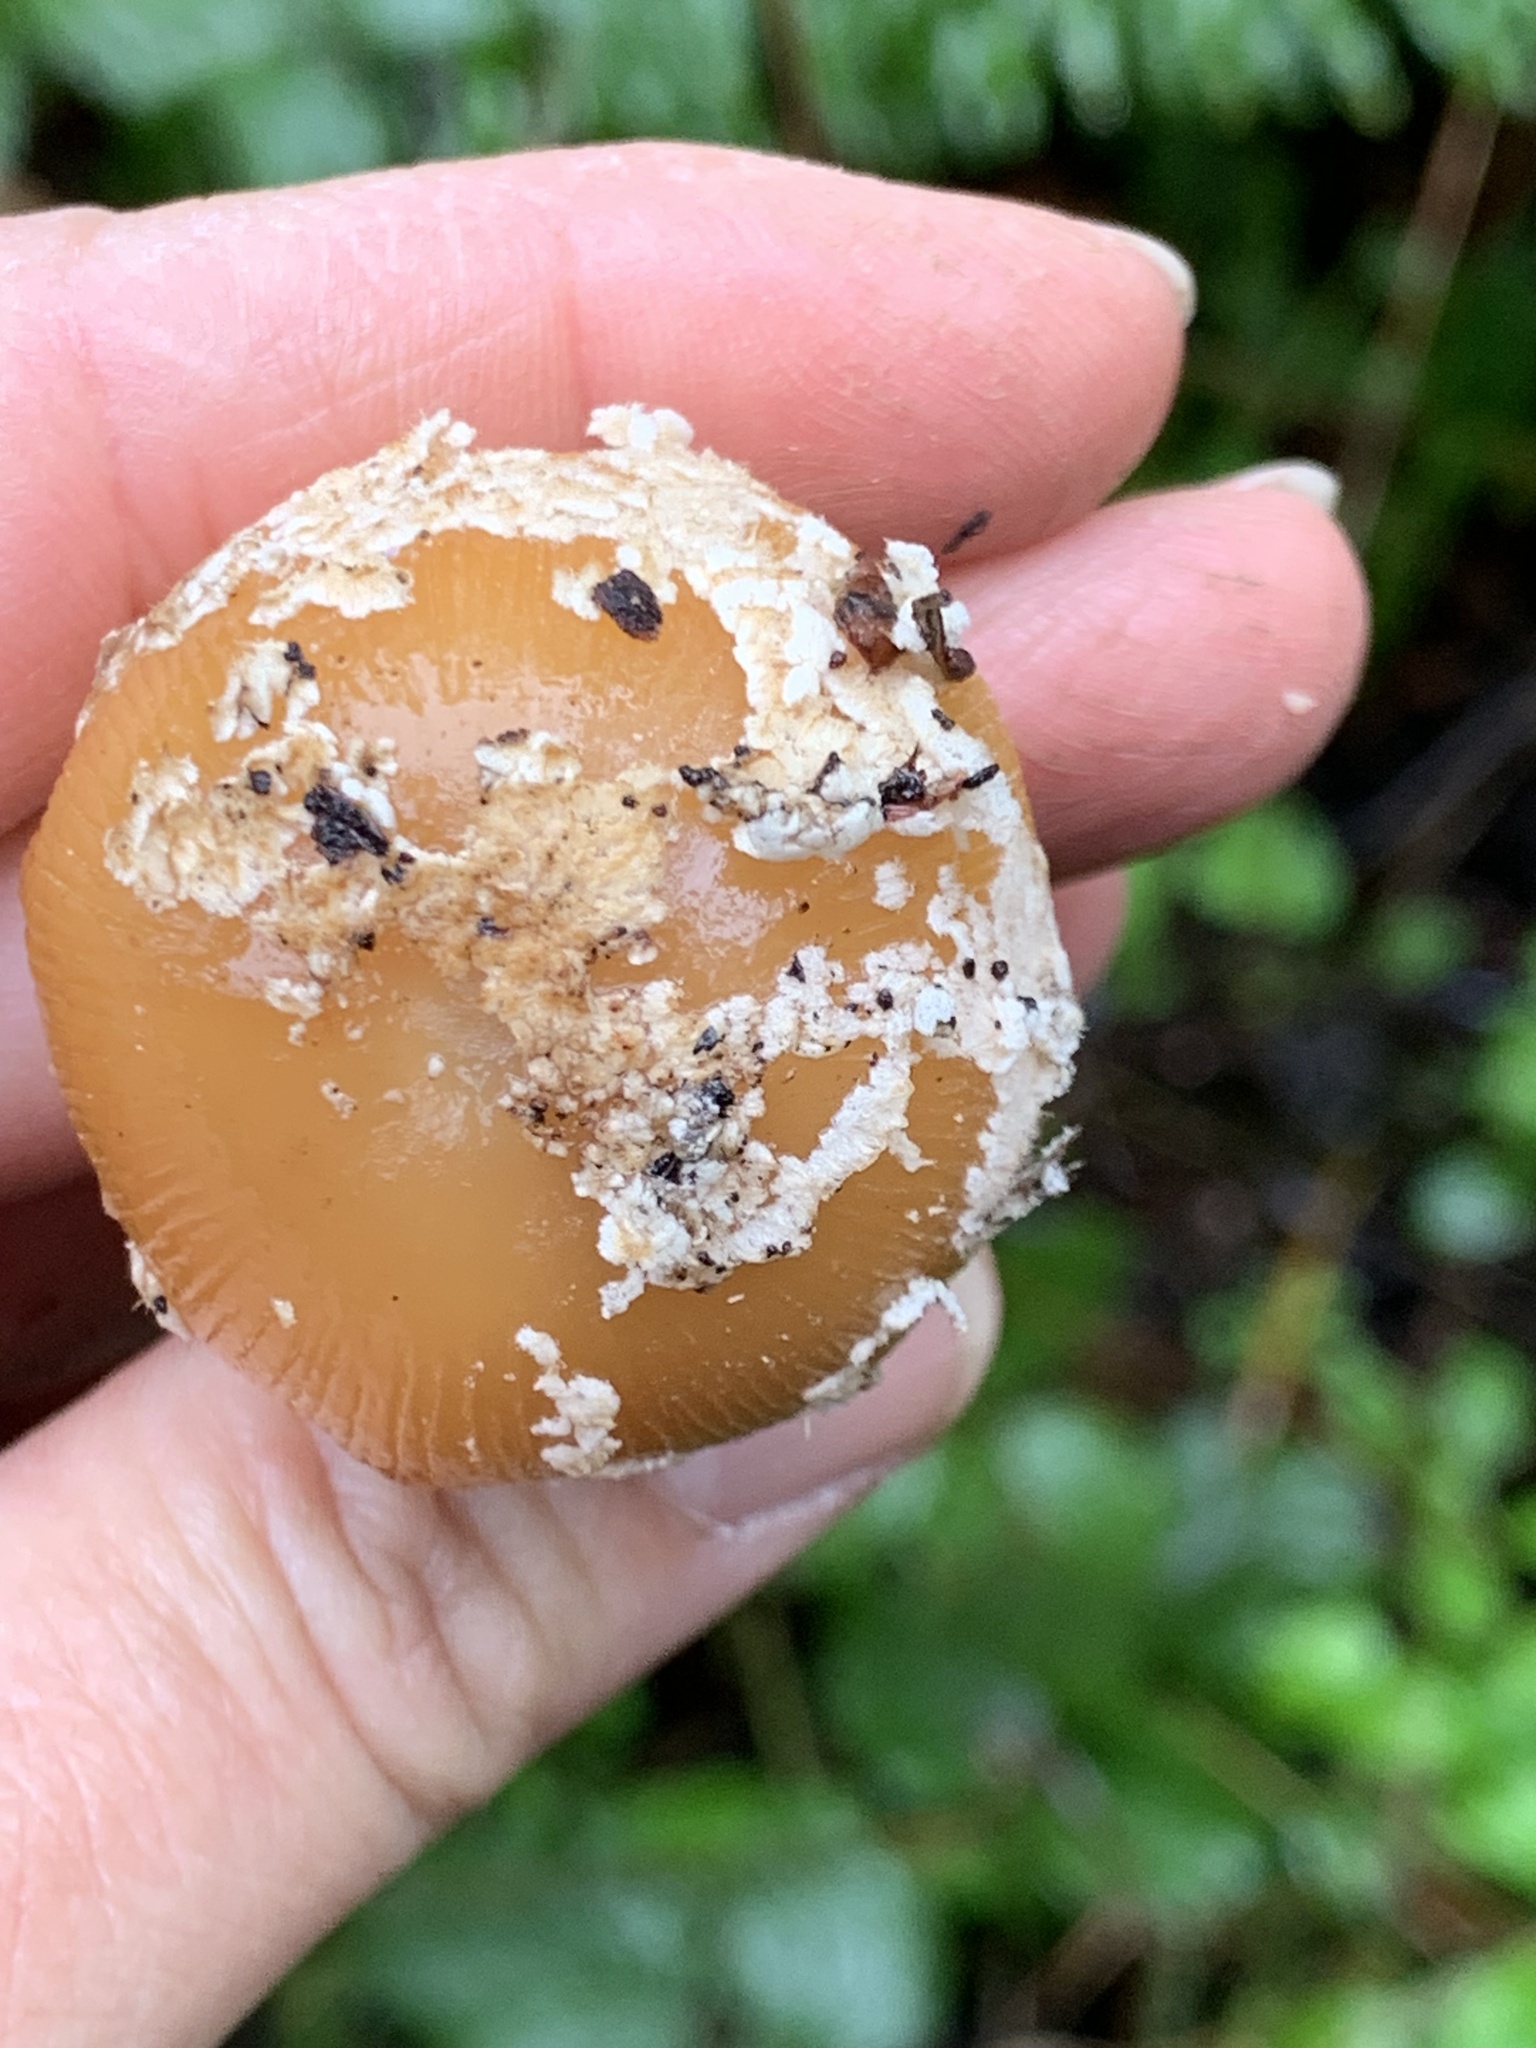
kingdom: Fungi
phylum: Basidiomycota
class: Agaricomycetes
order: Agaricales
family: Psathyrellaceae
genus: Coprinellus
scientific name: Coprinellus bipellis
